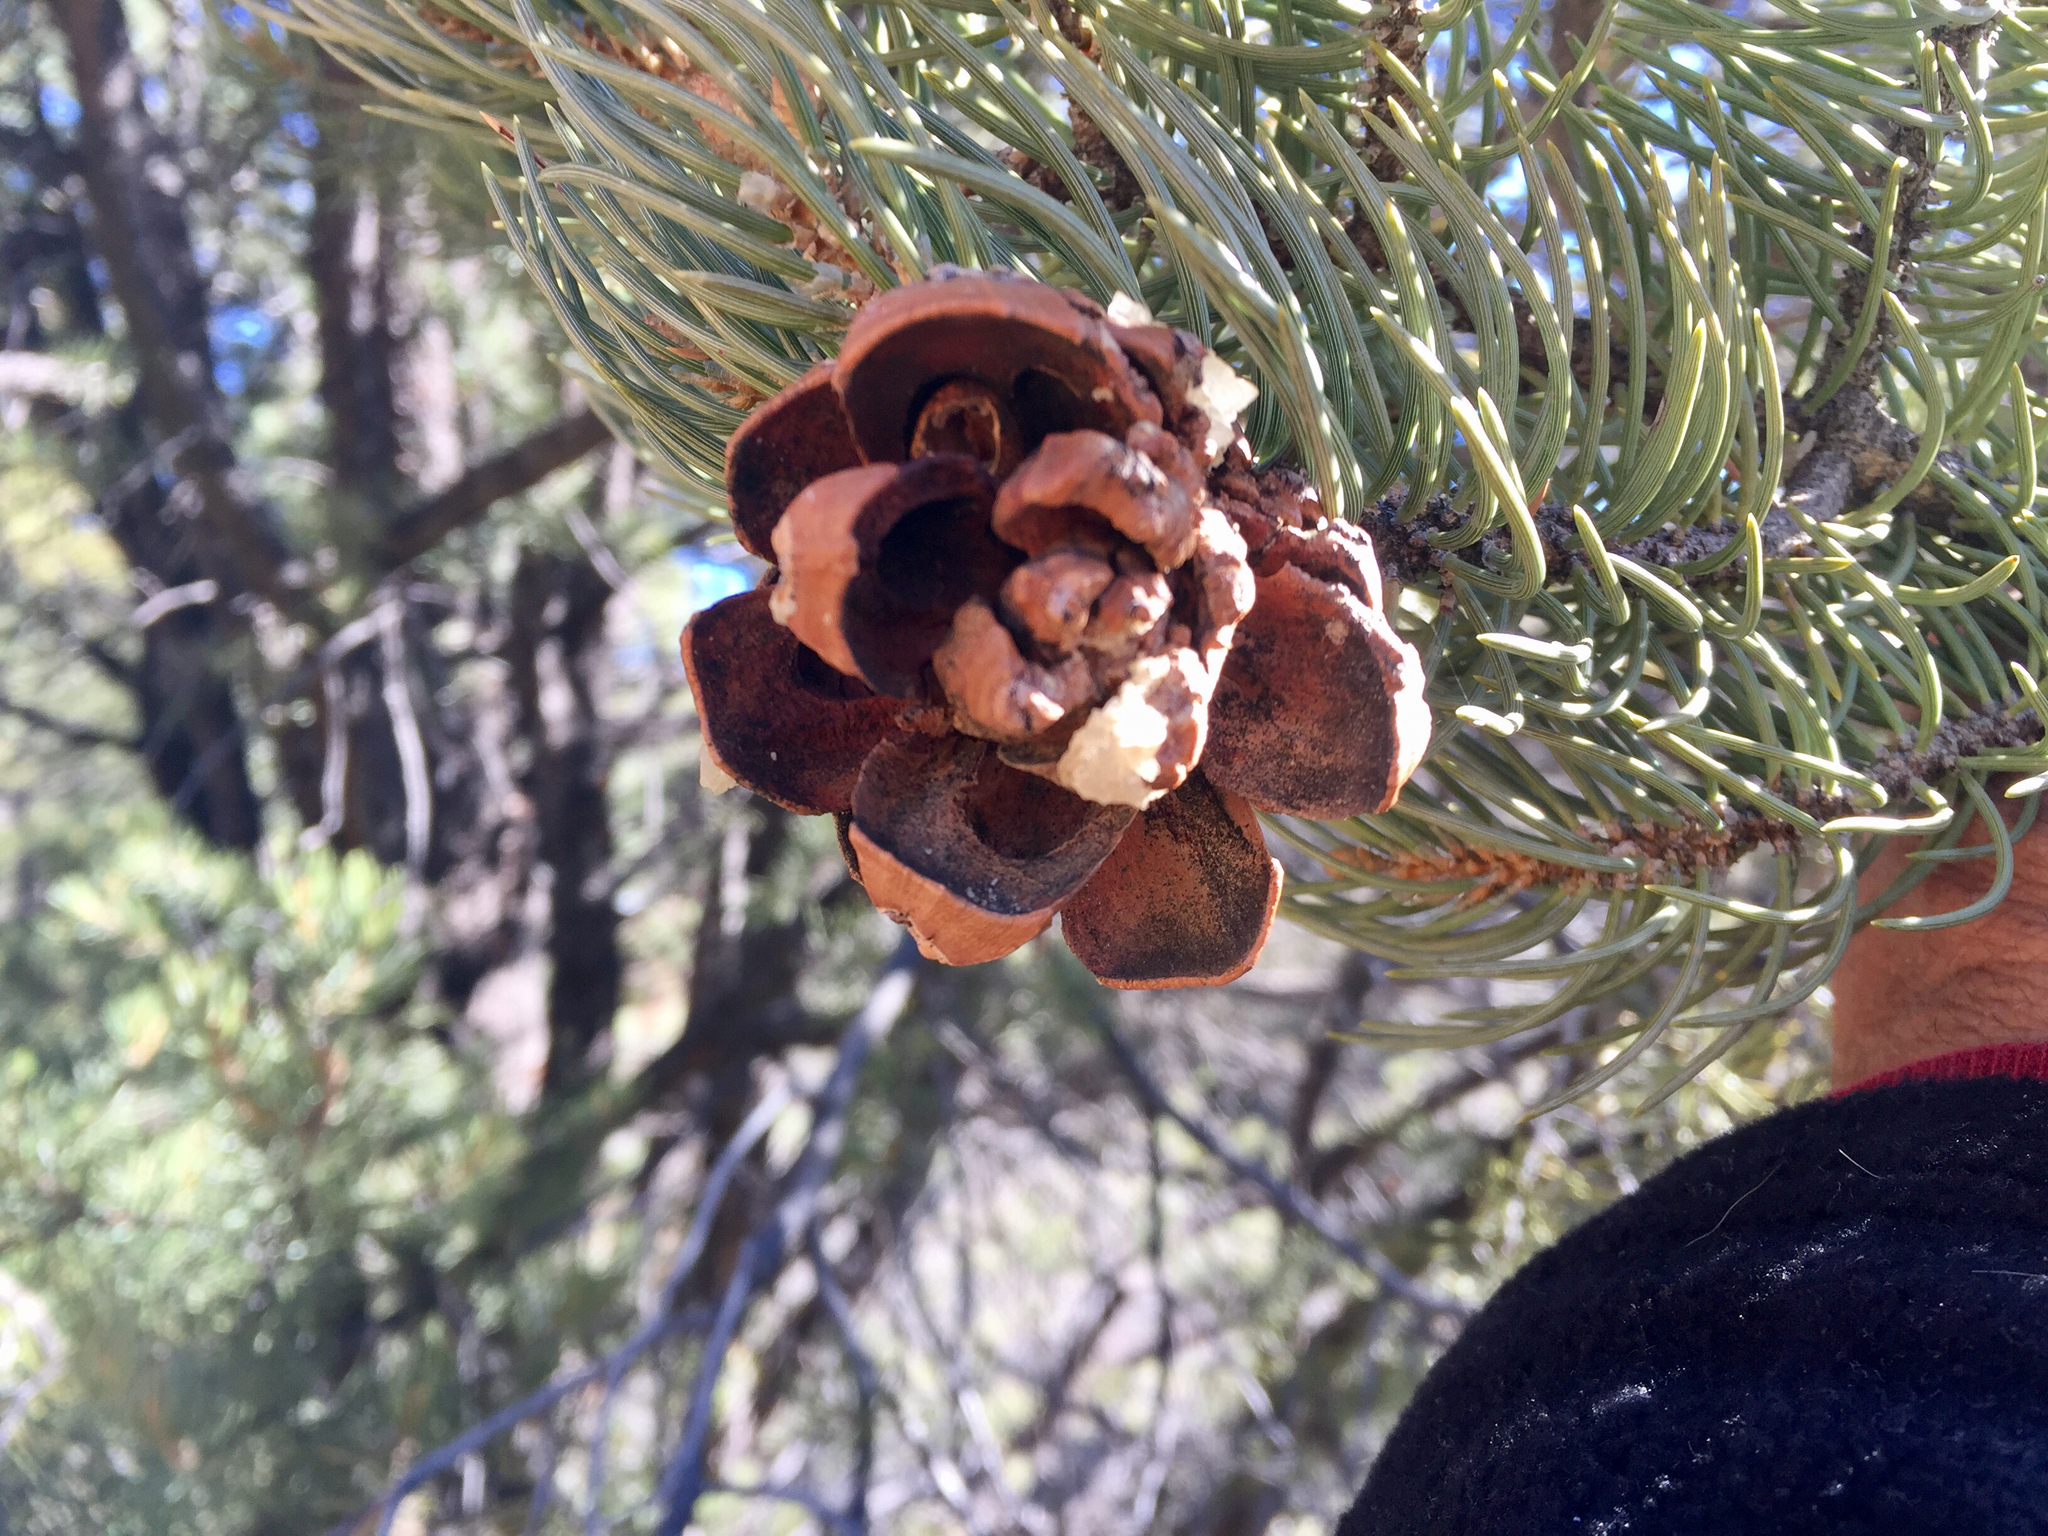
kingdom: Plantae
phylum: Tracheophyta
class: Pinopsida
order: Pinales
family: Pinaceae
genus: Pinus
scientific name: Pinus monophylla
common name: One-leaved nut pine
